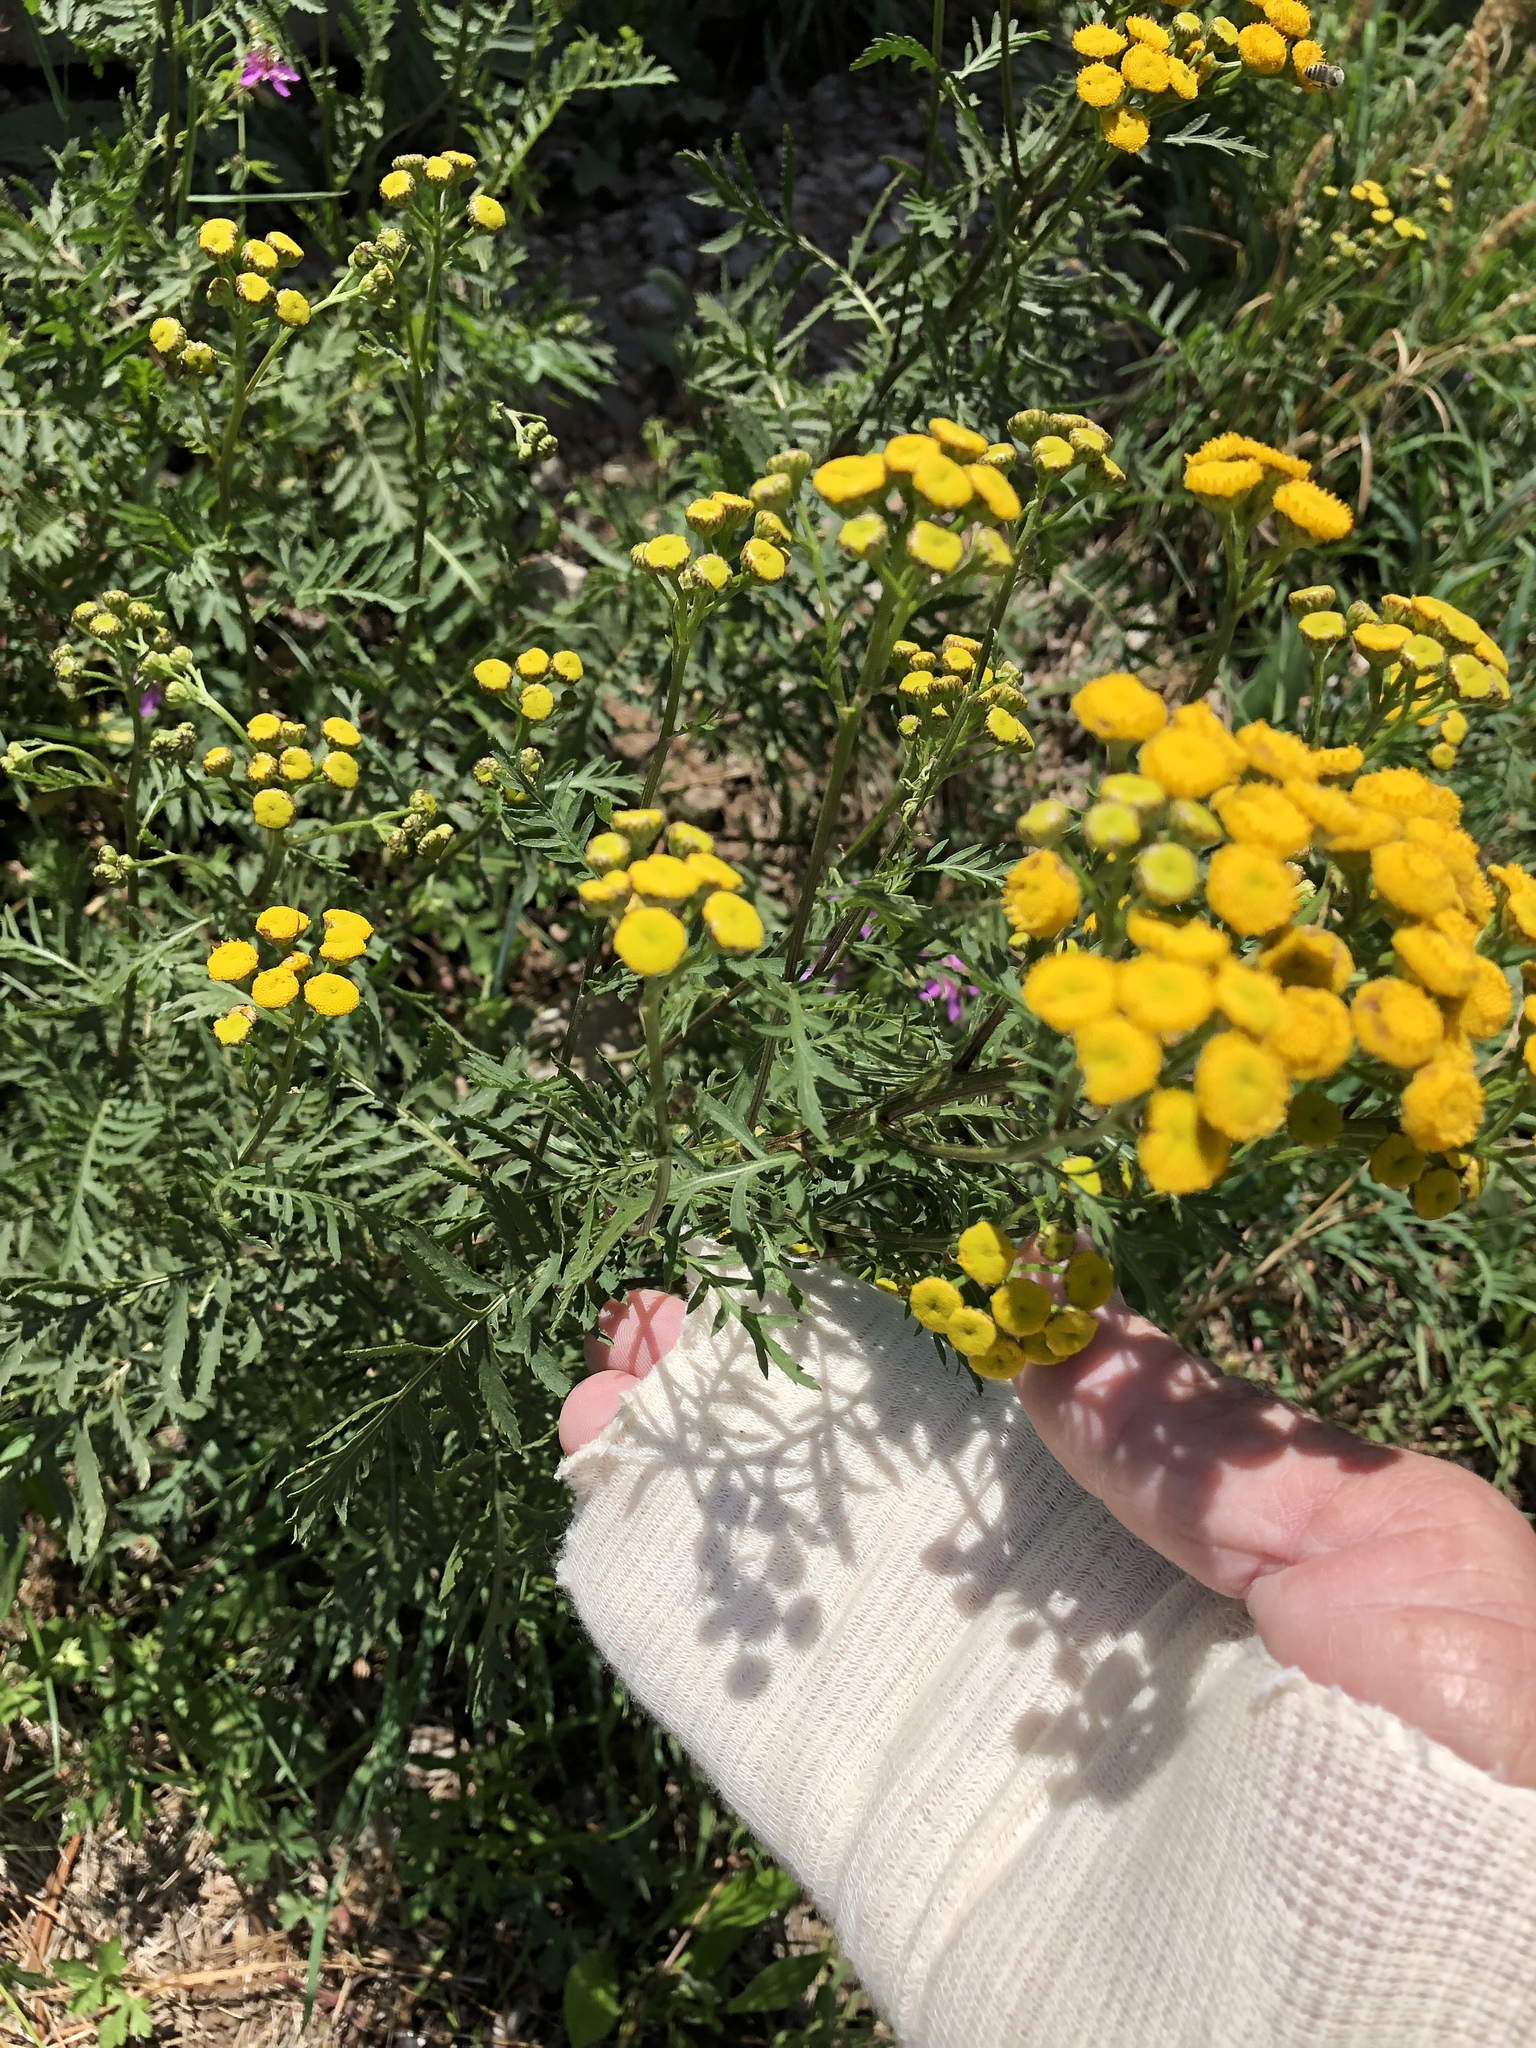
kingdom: Plantae
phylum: Tracheophyta
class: Magnoliopsida
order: Asterales
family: Asteraceae
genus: Tanacetum
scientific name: Tanacetum vulgare
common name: Common tansy
